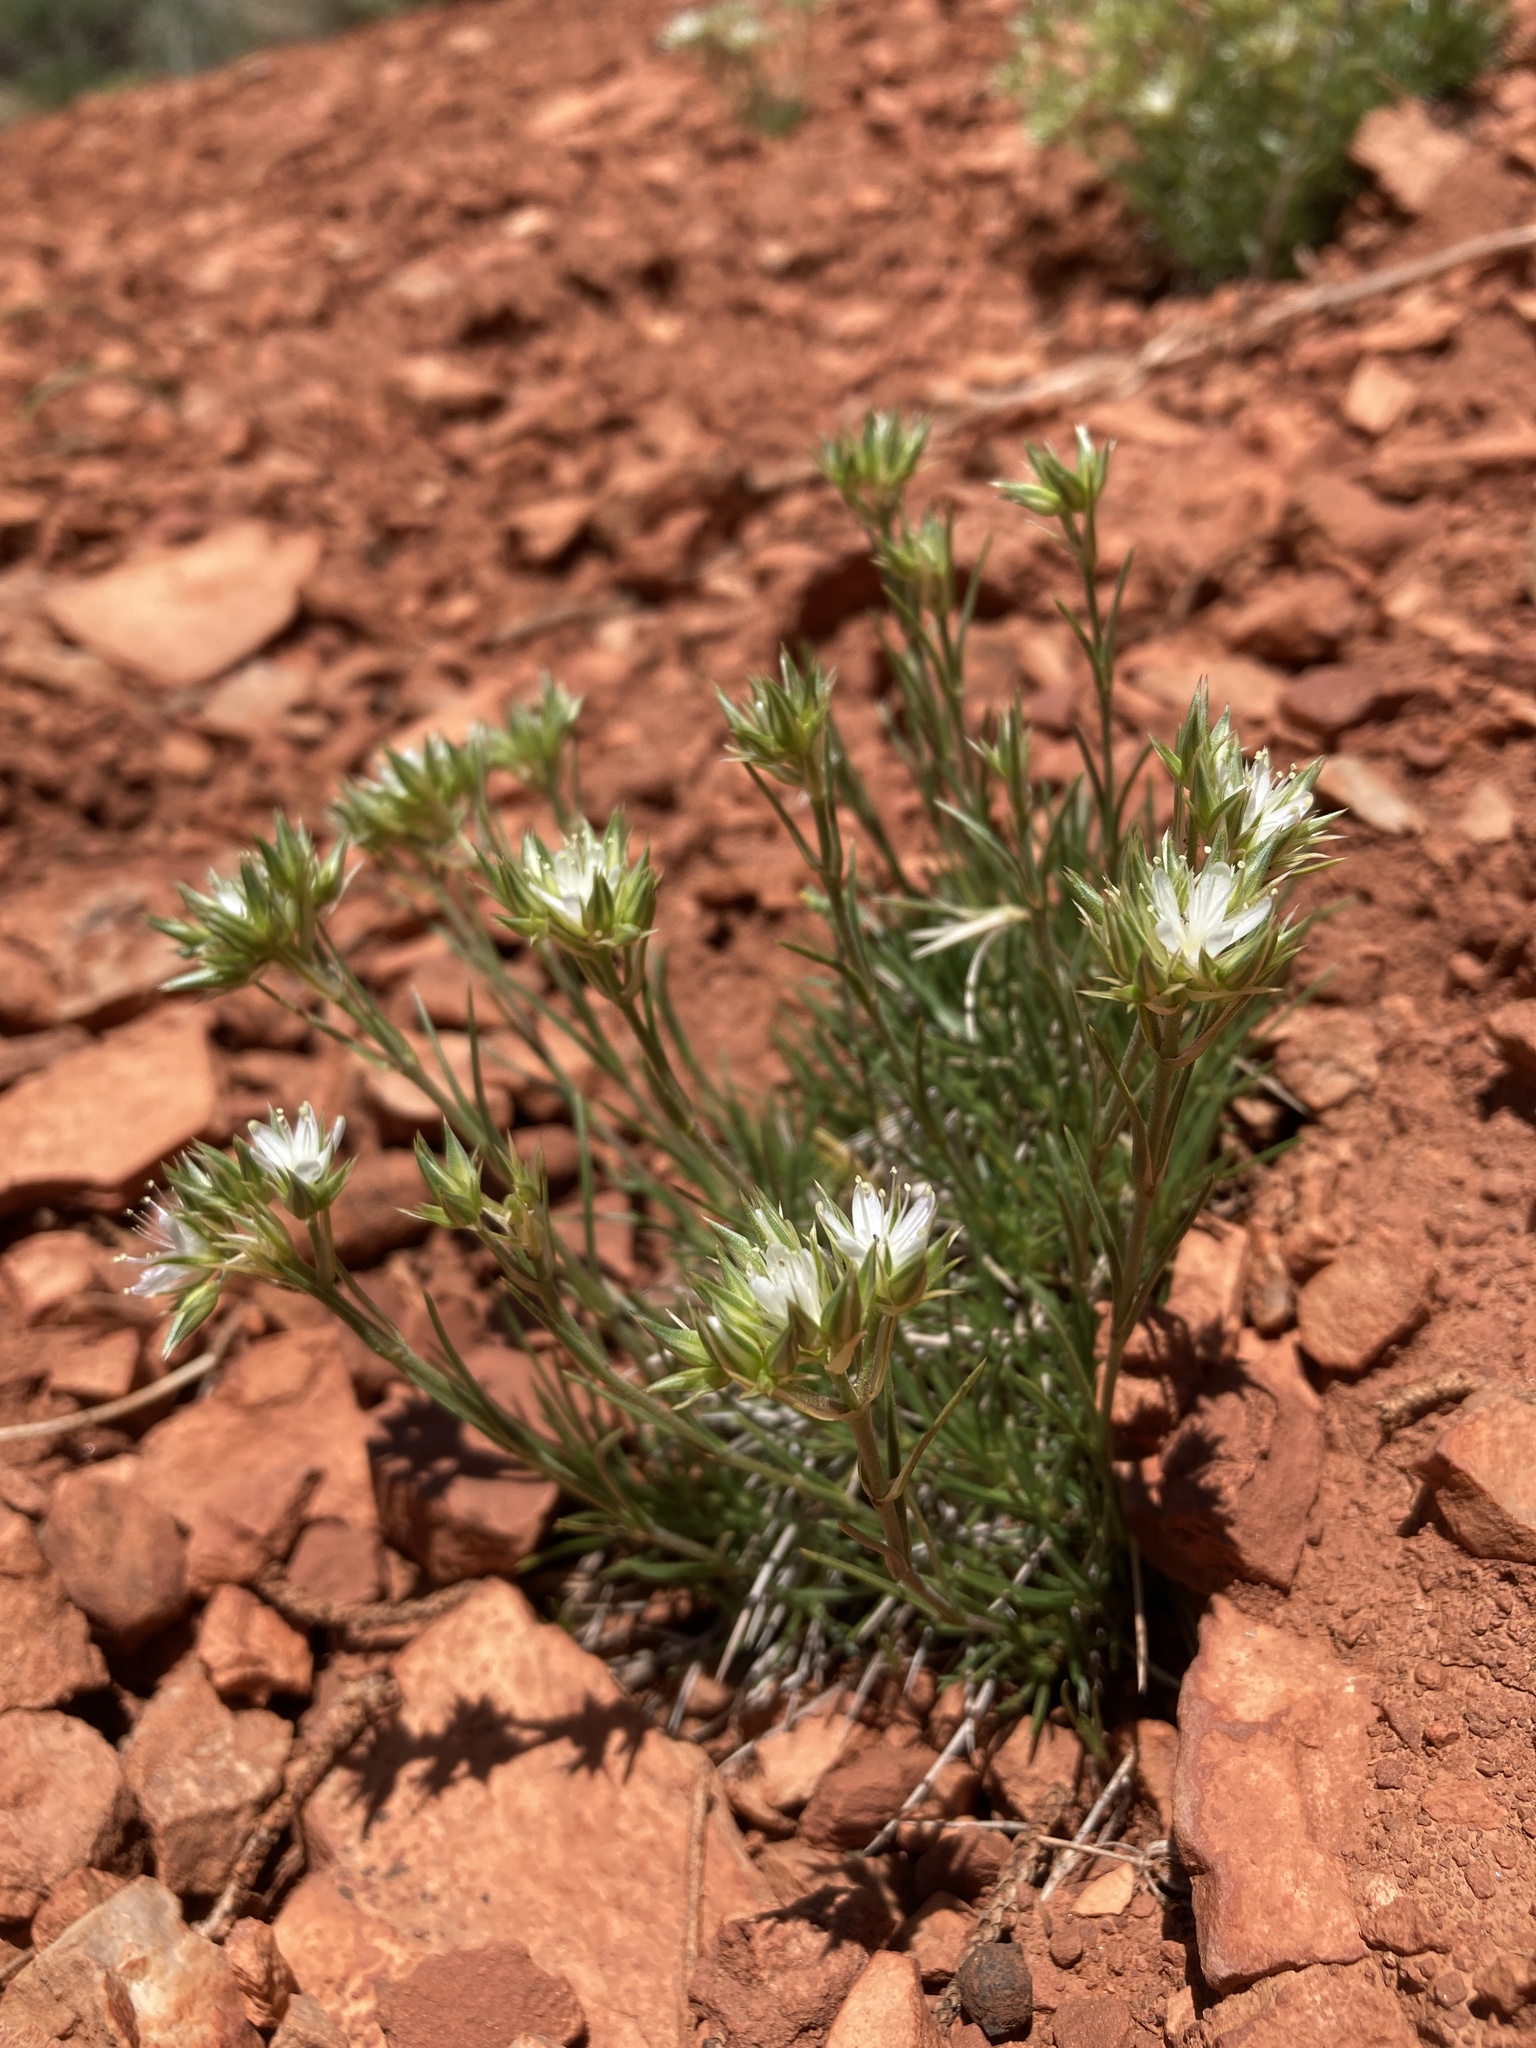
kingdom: Plantae
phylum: Tracheophyta
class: Magnoliopsida
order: Caryophyllales
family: Caryophyllaceae
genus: Eremogone
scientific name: Eremogone hookeri
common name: Hooker's sandwort
